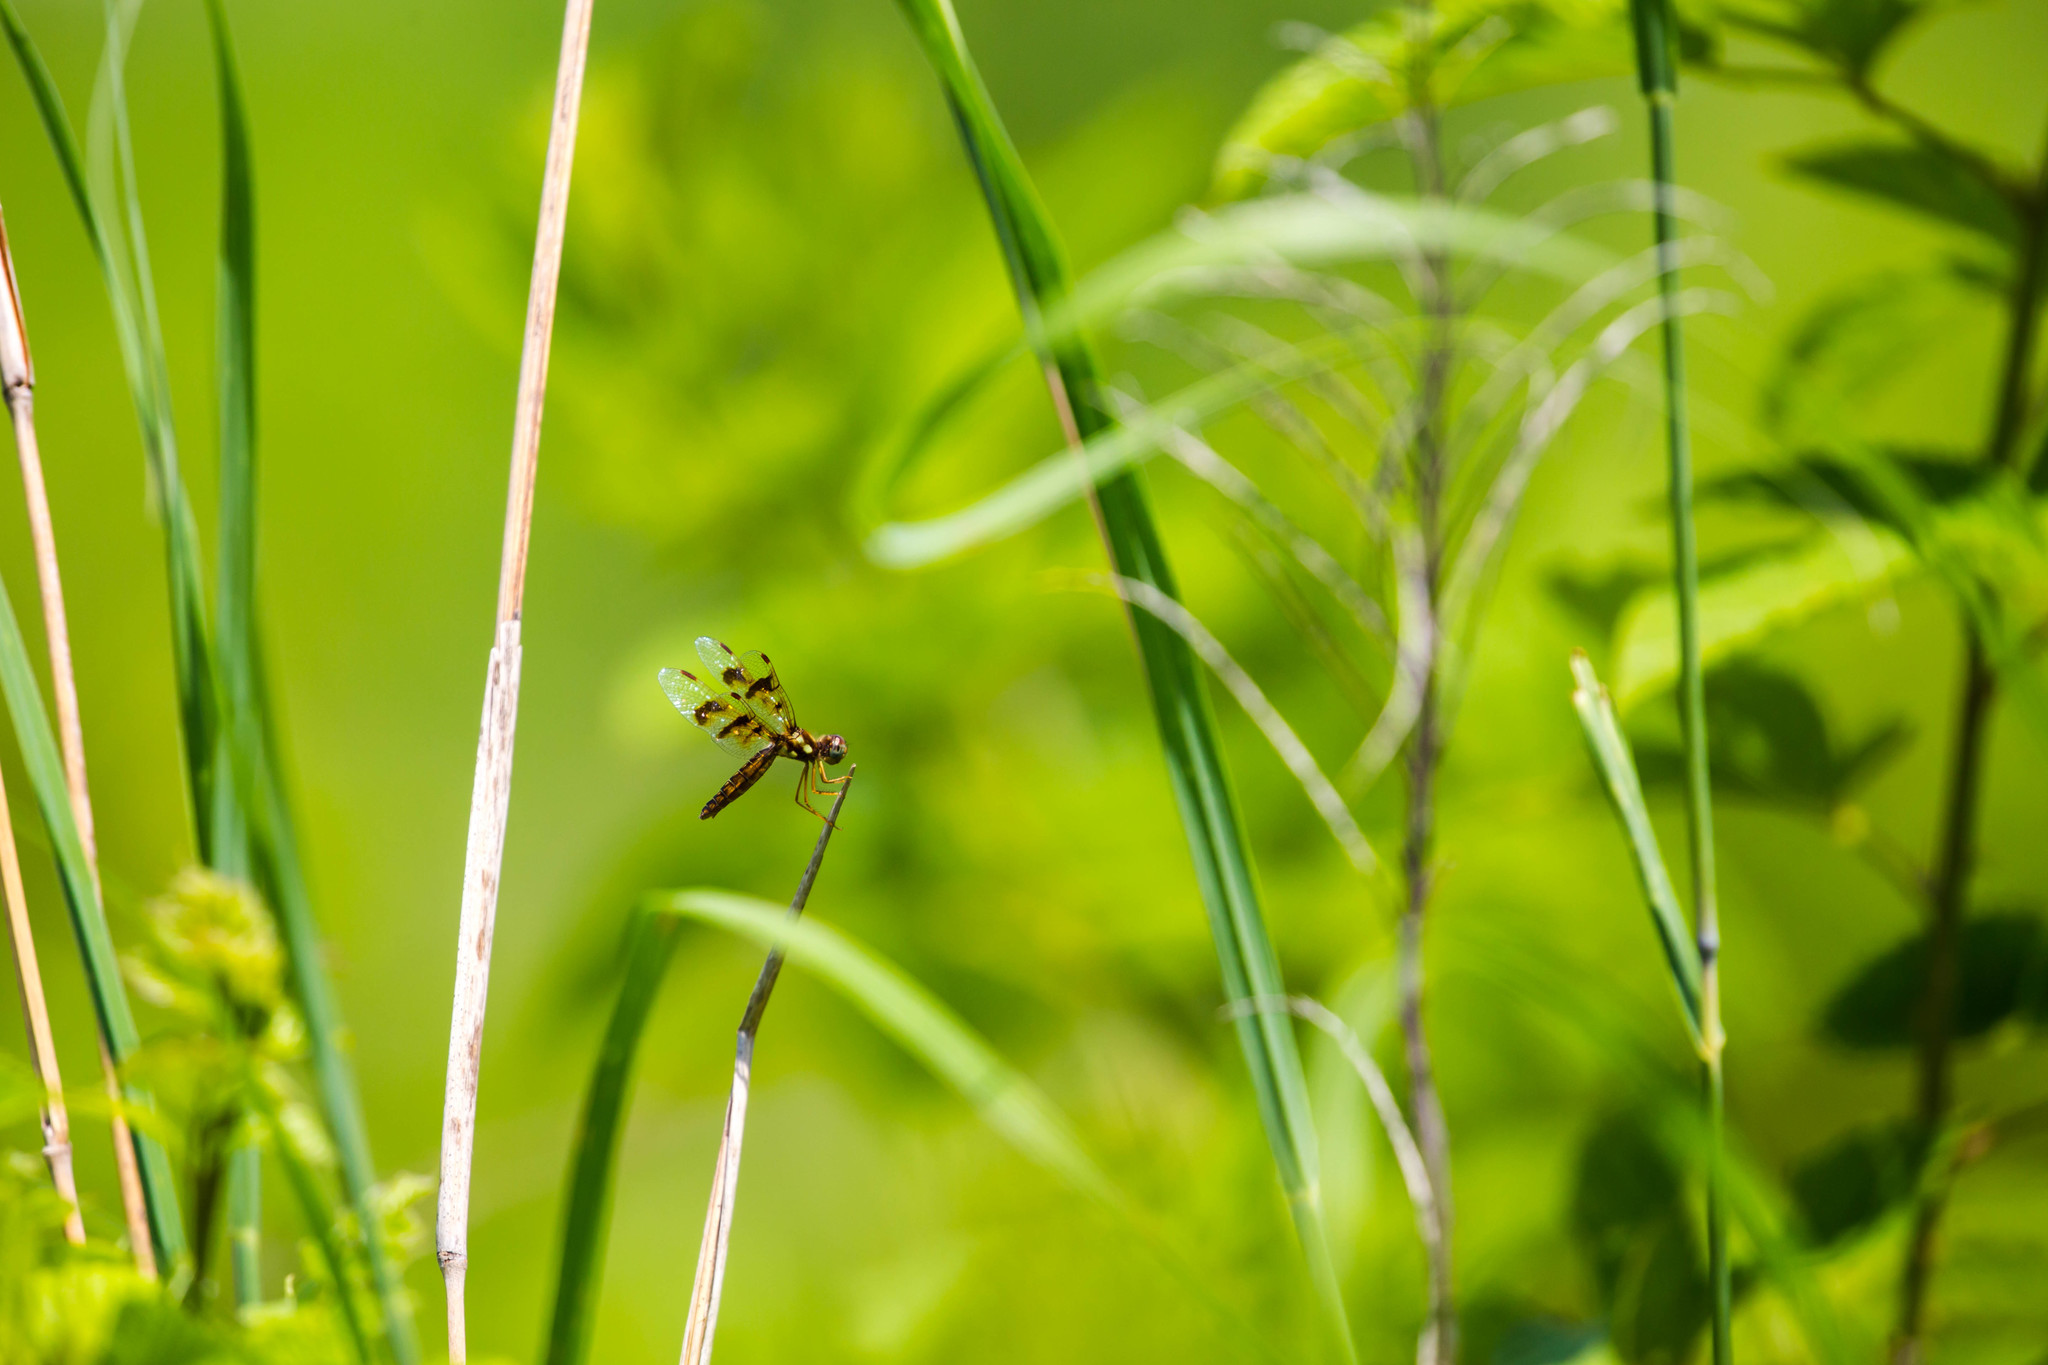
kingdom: Animalia
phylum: Arthropoda
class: Insecta
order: Odonata
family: Libellulidae
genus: Perithemis
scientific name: Perithemis tenera
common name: Eastern amberwing
